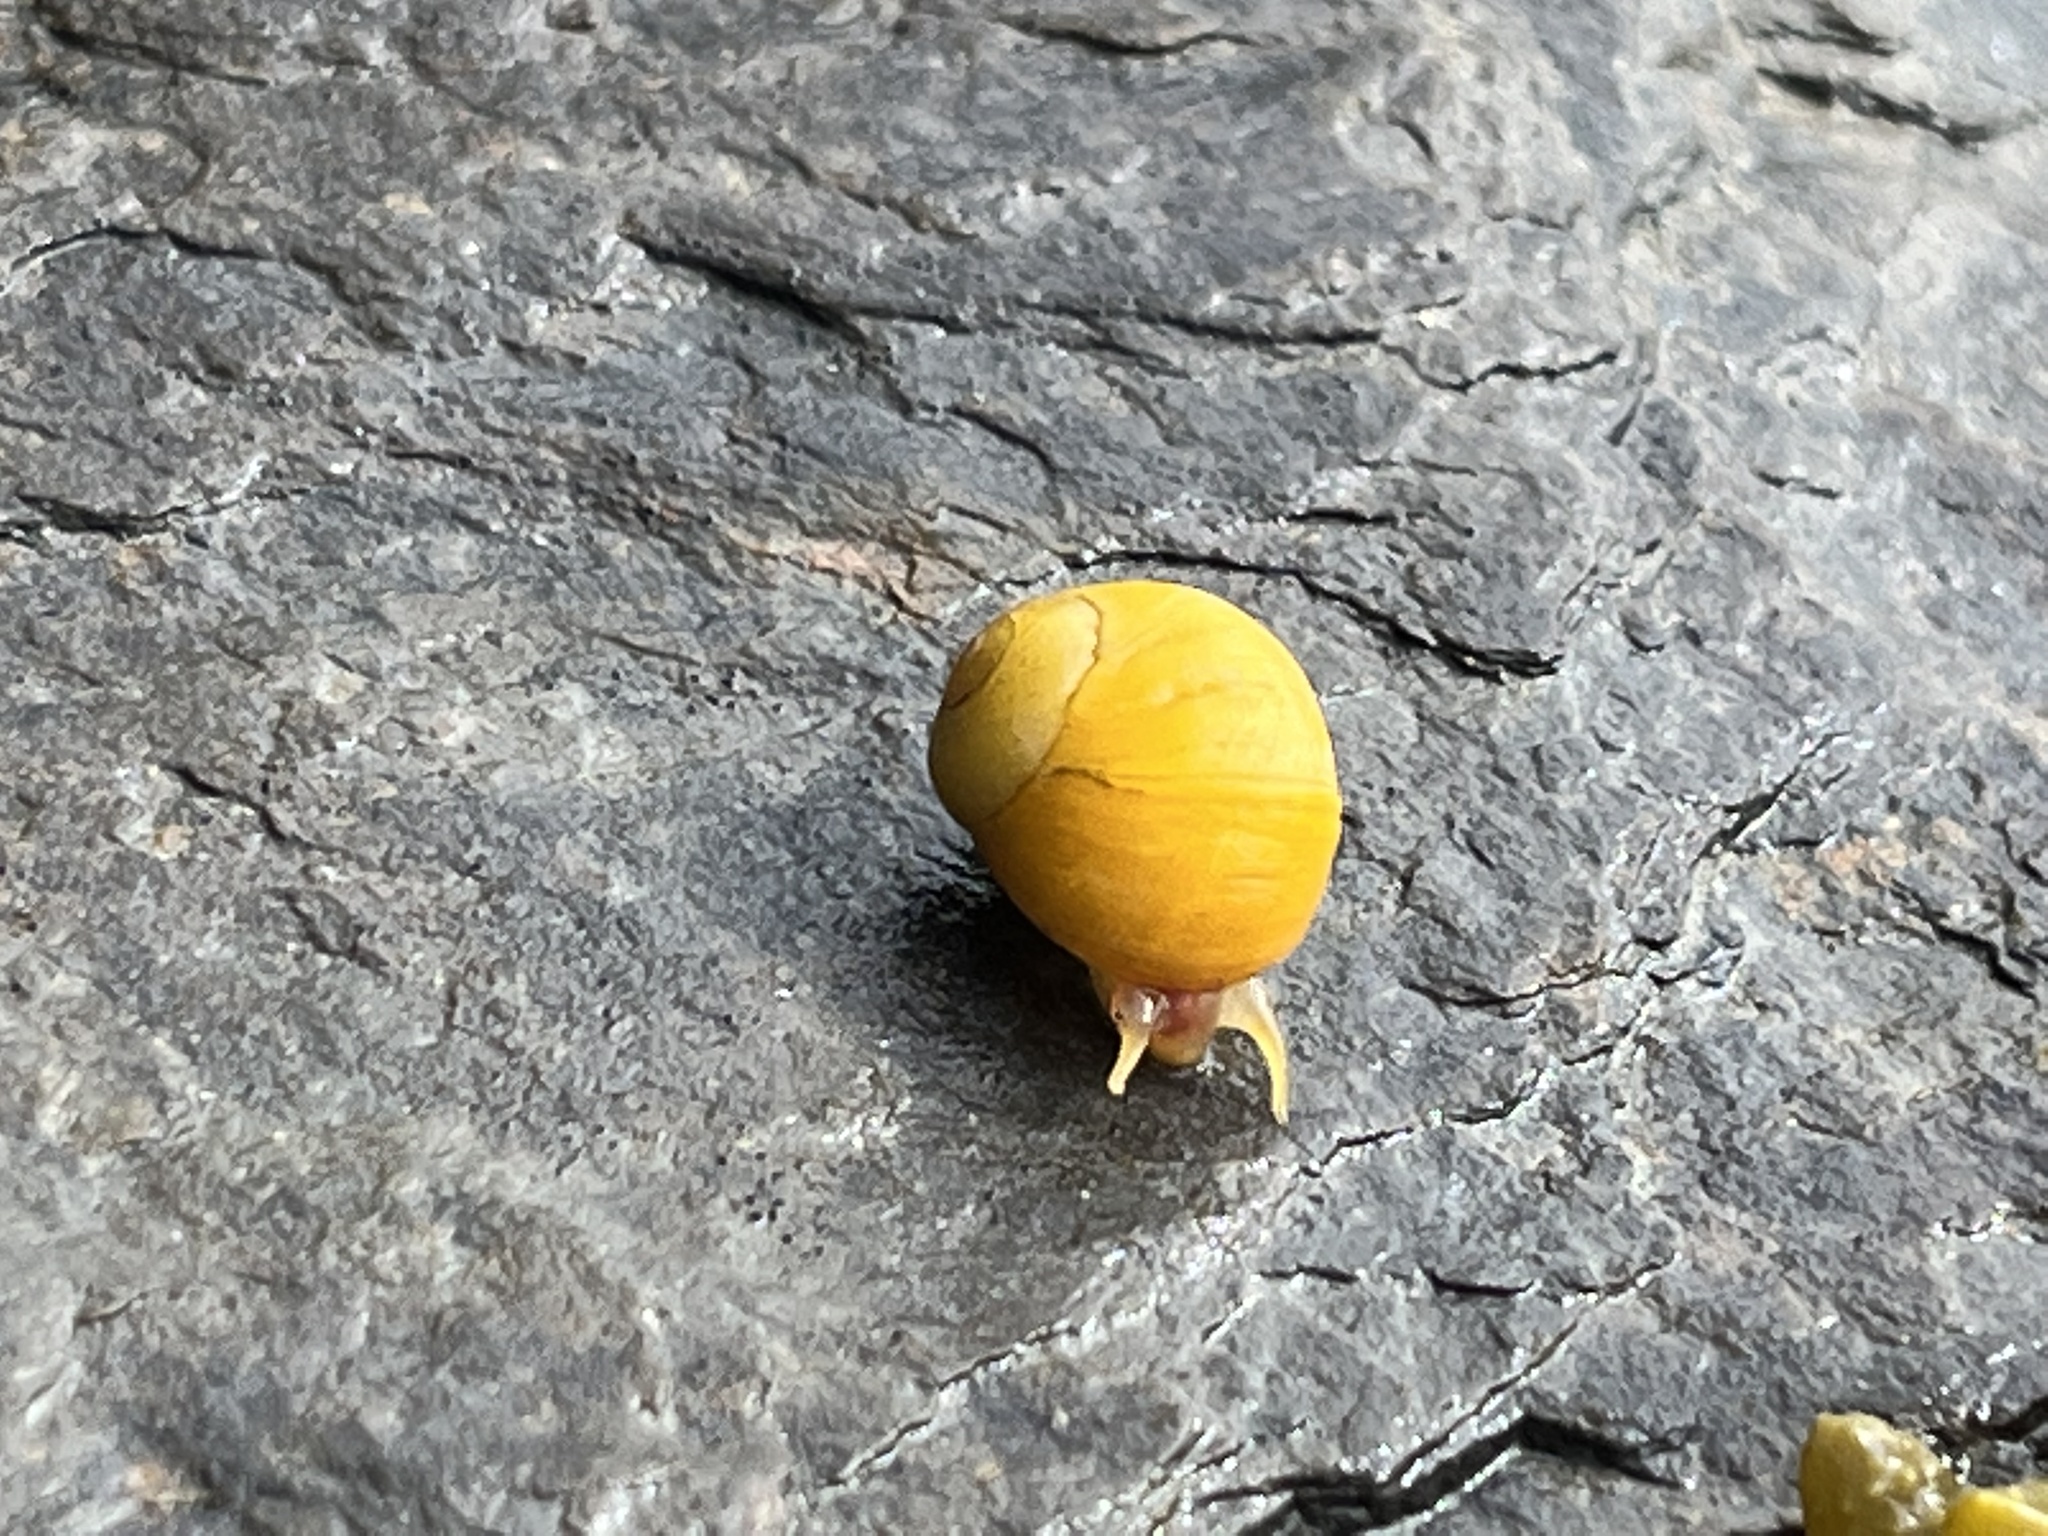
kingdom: Animalia
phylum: Mollusca
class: Gastropoda
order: Littorinimorpha
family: Littorinidae
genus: Littorina
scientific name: Littorina obtusata
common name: Flat periwinkle
